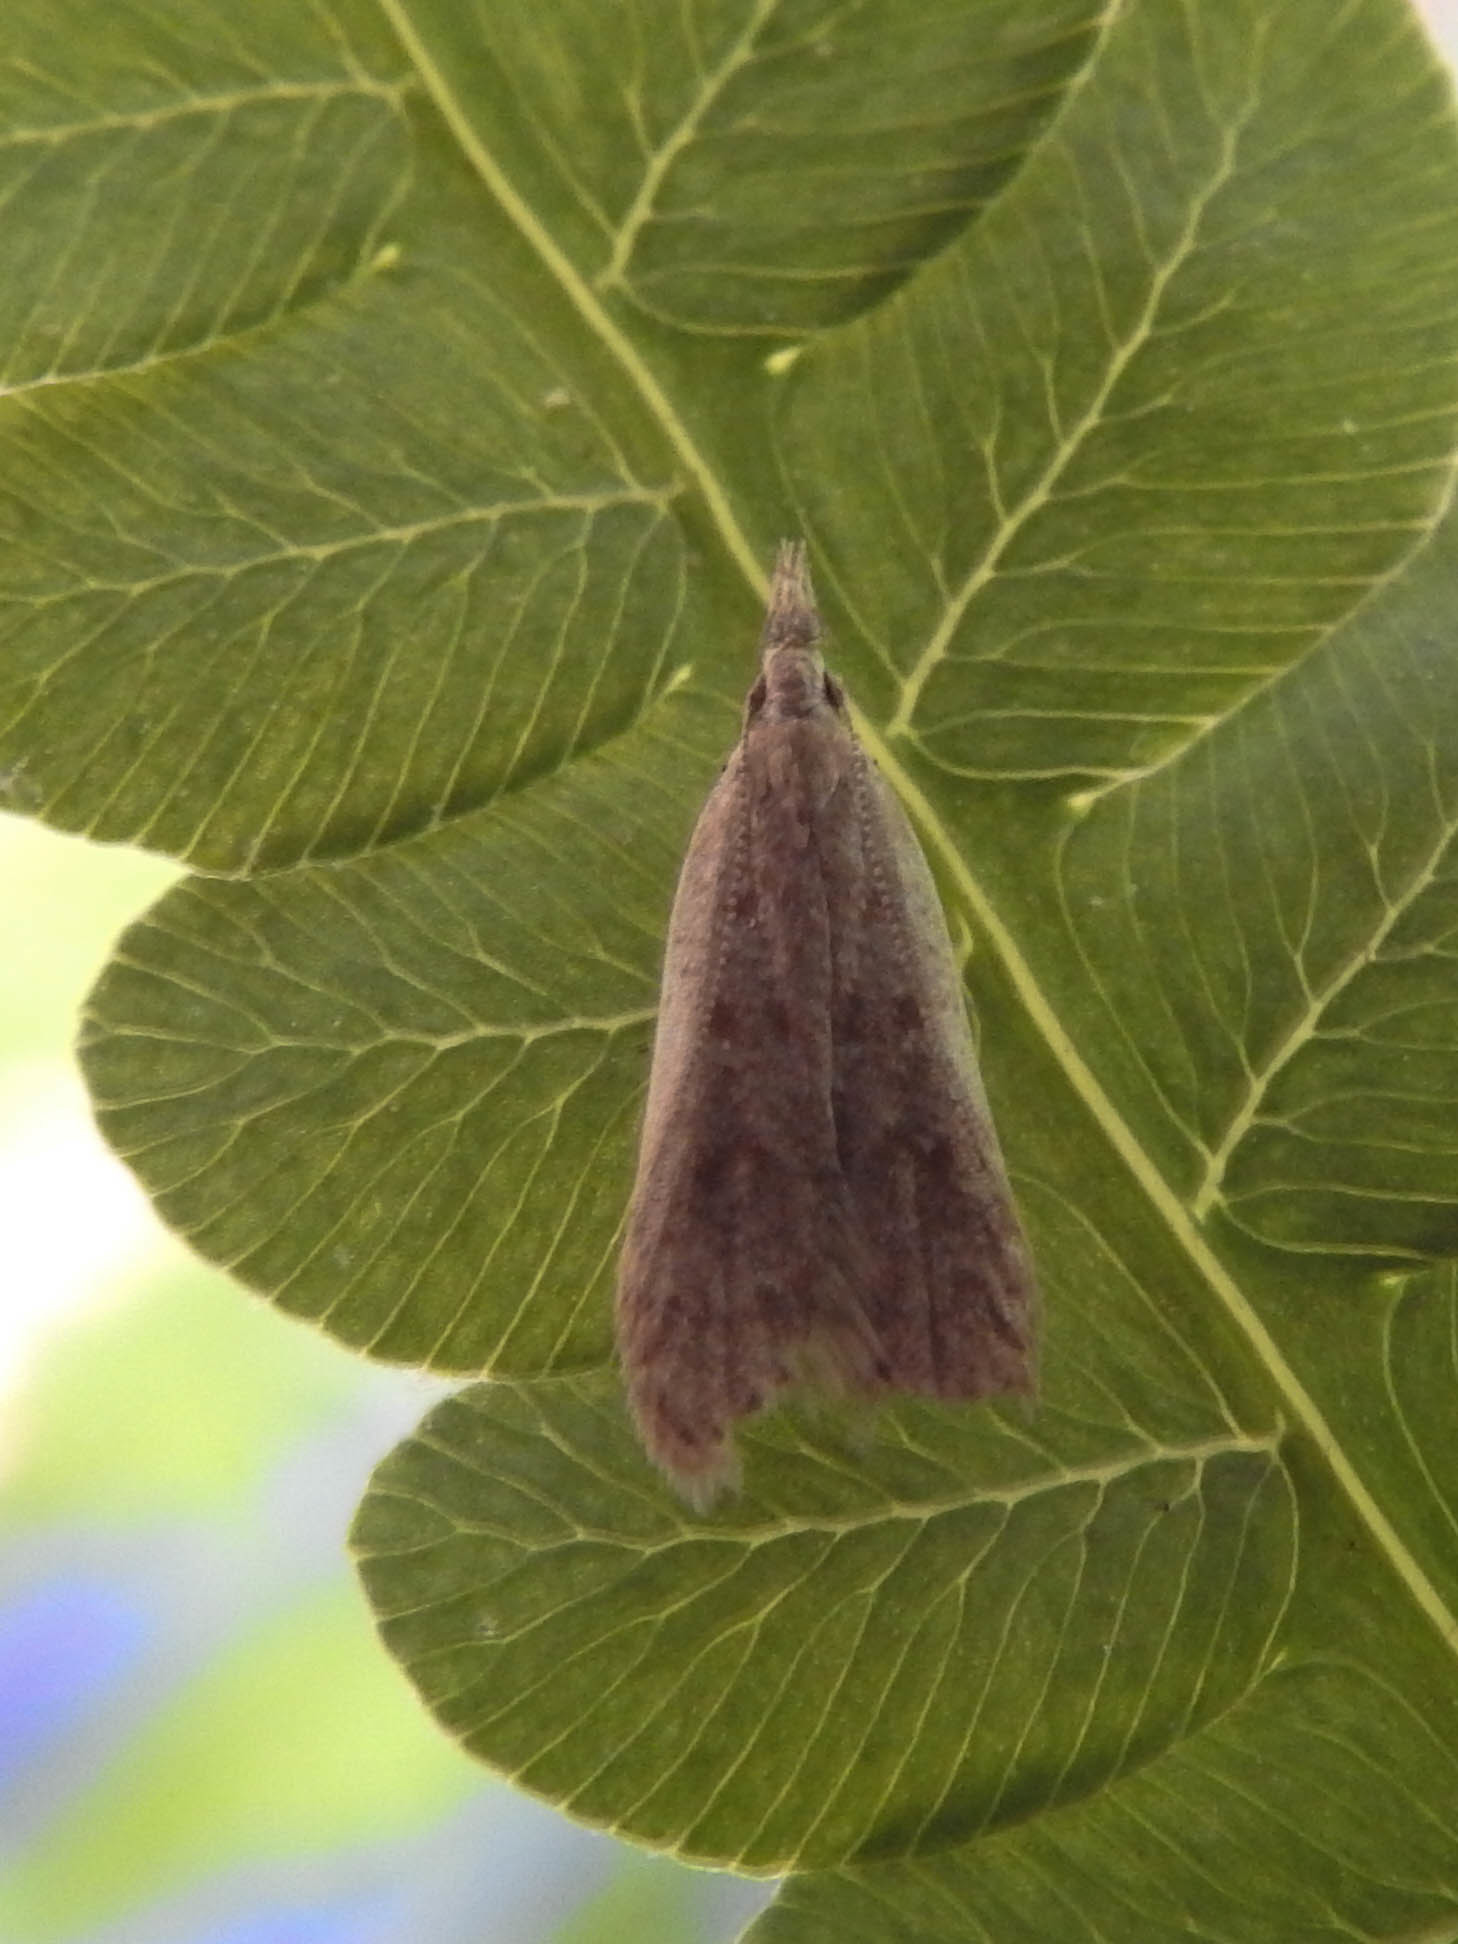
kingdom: Animalia
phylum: Arthropoda
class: Insecta
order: Lepidoptera
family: Gelechiidae
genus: Dichomeris
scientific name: Dichomeris punctidiscellus
